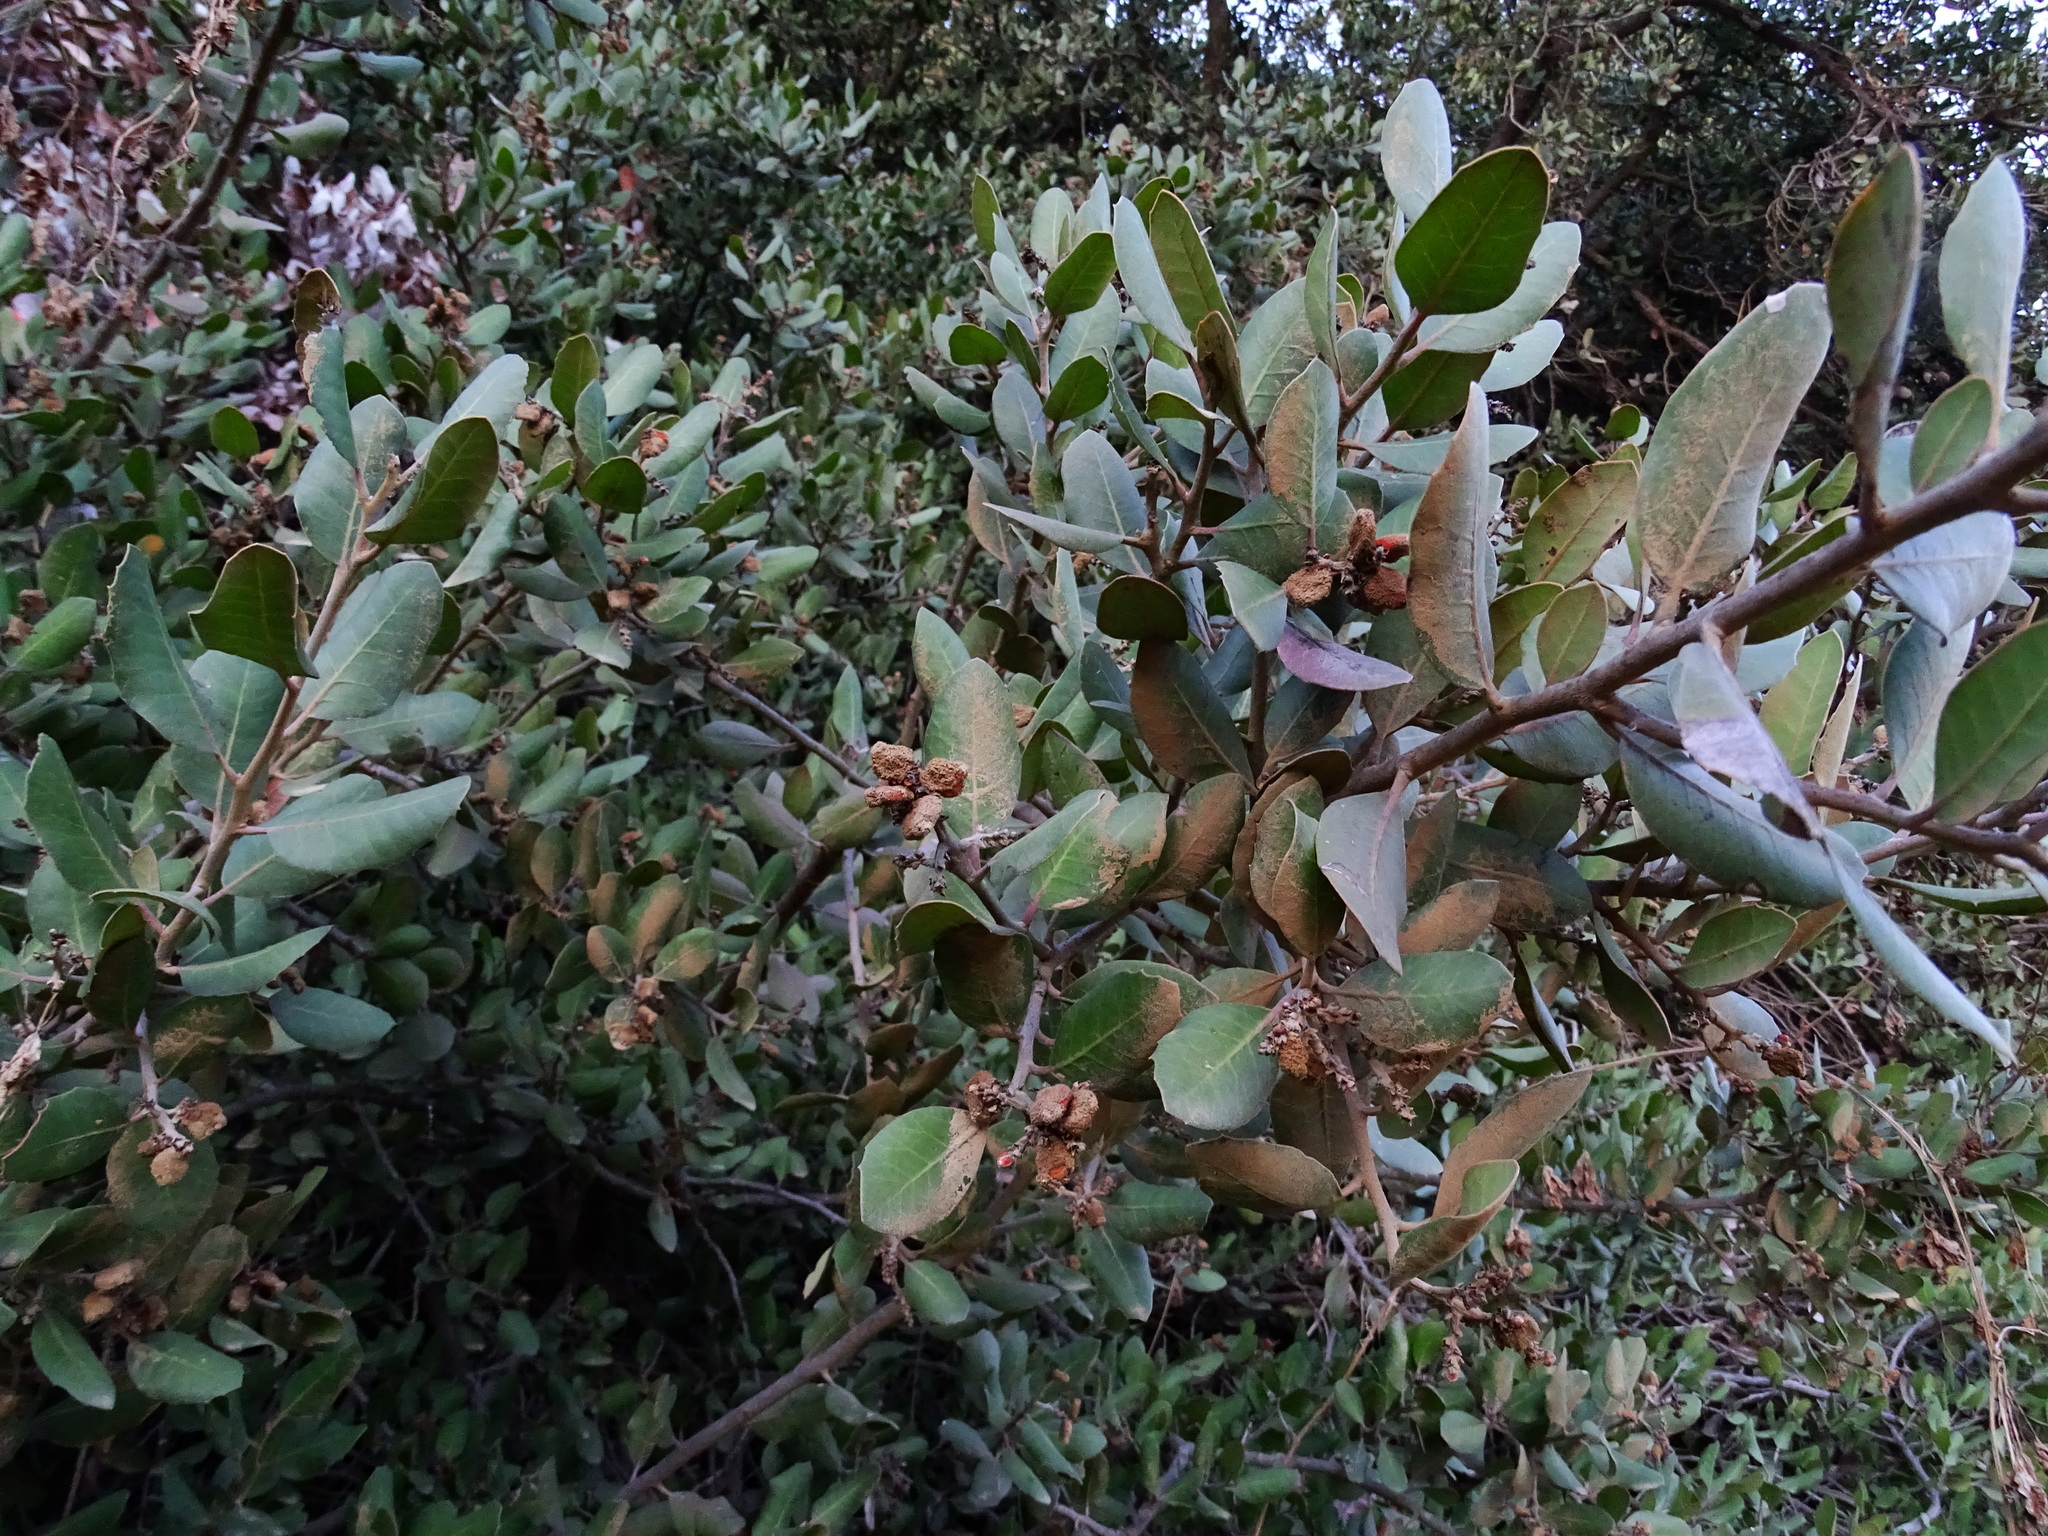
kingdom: Plantae
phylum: Tracheophyta
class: Magnoliopsida
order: Sapindales
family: Anacardiaceae
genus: Rhus
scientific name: Rhus integrifolia
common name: Lemonade sumac
